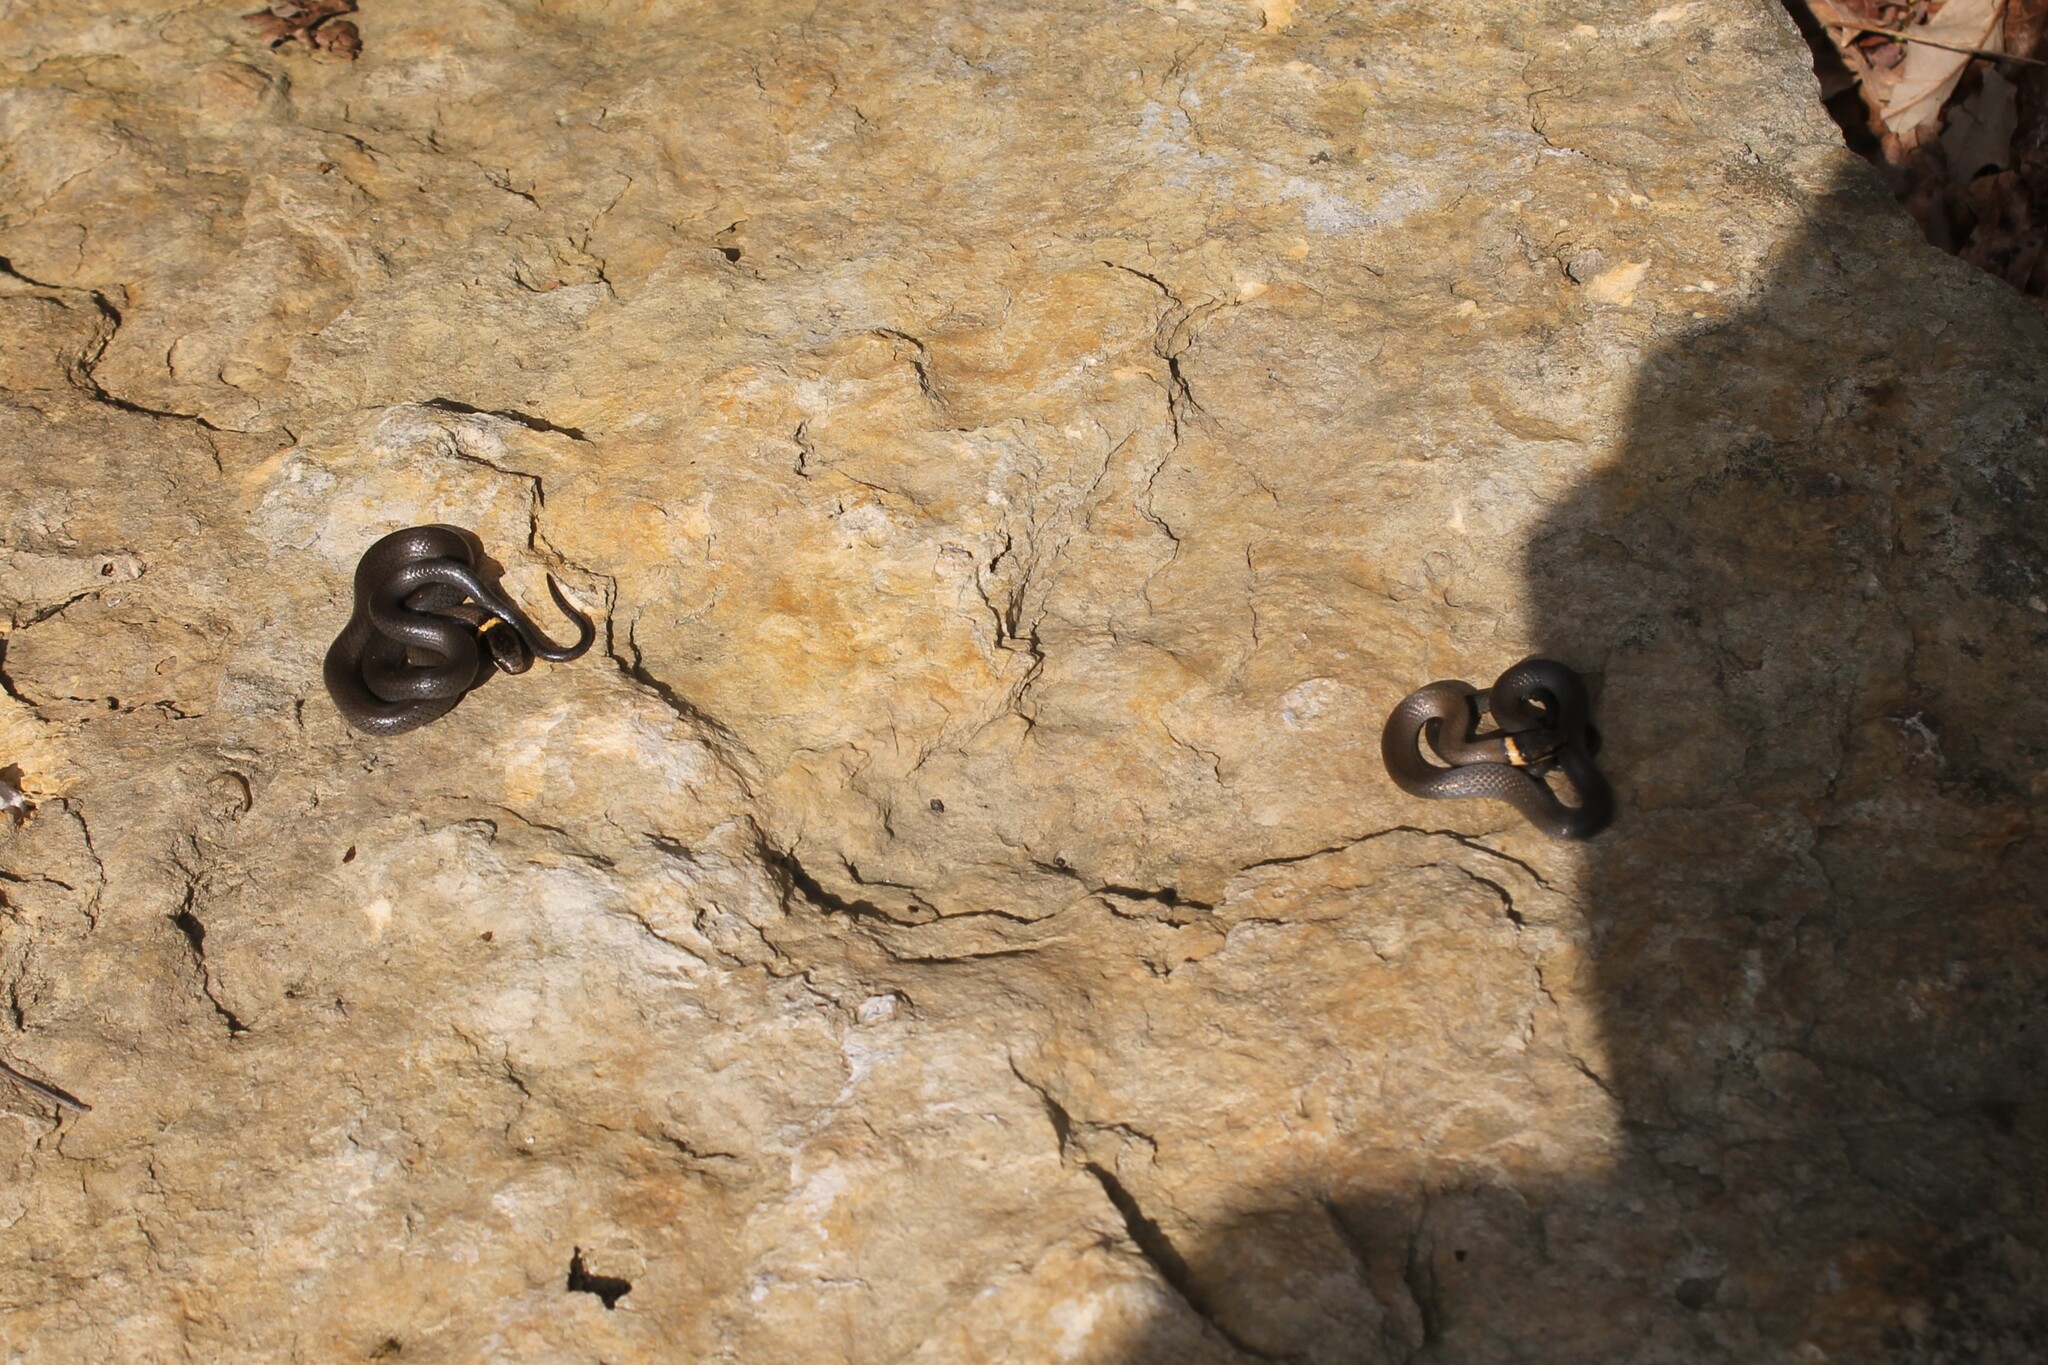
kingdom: Animalia
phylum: Chordata
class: Squamata
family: Colubridae
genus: Diadophis
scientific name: Diadophis punctatus
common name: Ringneck snake
